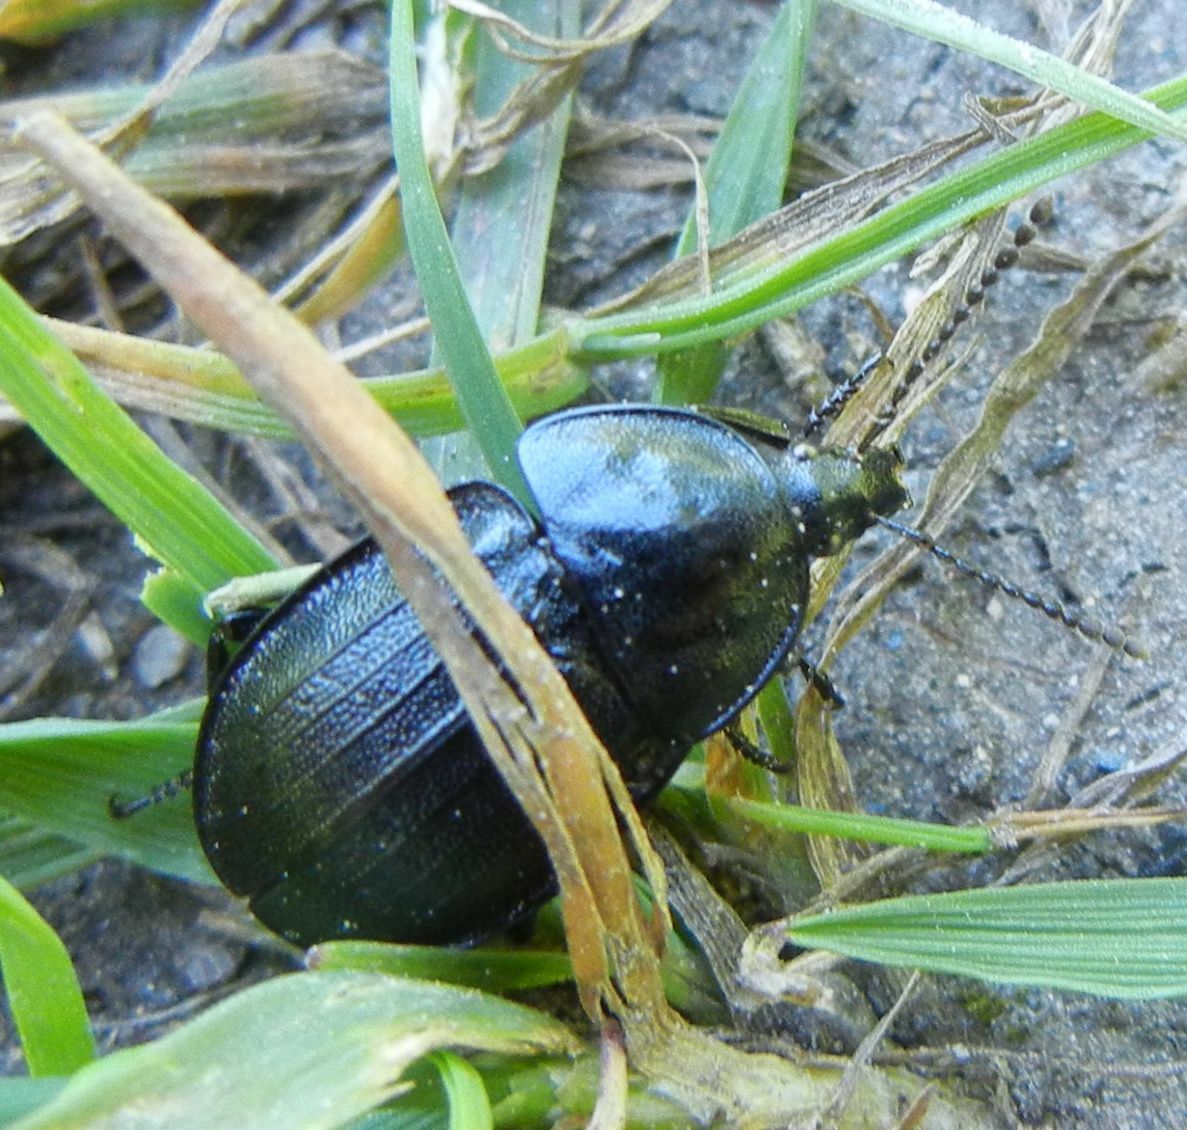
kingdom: Animalia
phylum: Arthropoda
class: Insecta
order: Coleoptera
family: Staphylinidae
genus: Silpha
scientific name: Silpha atrata
